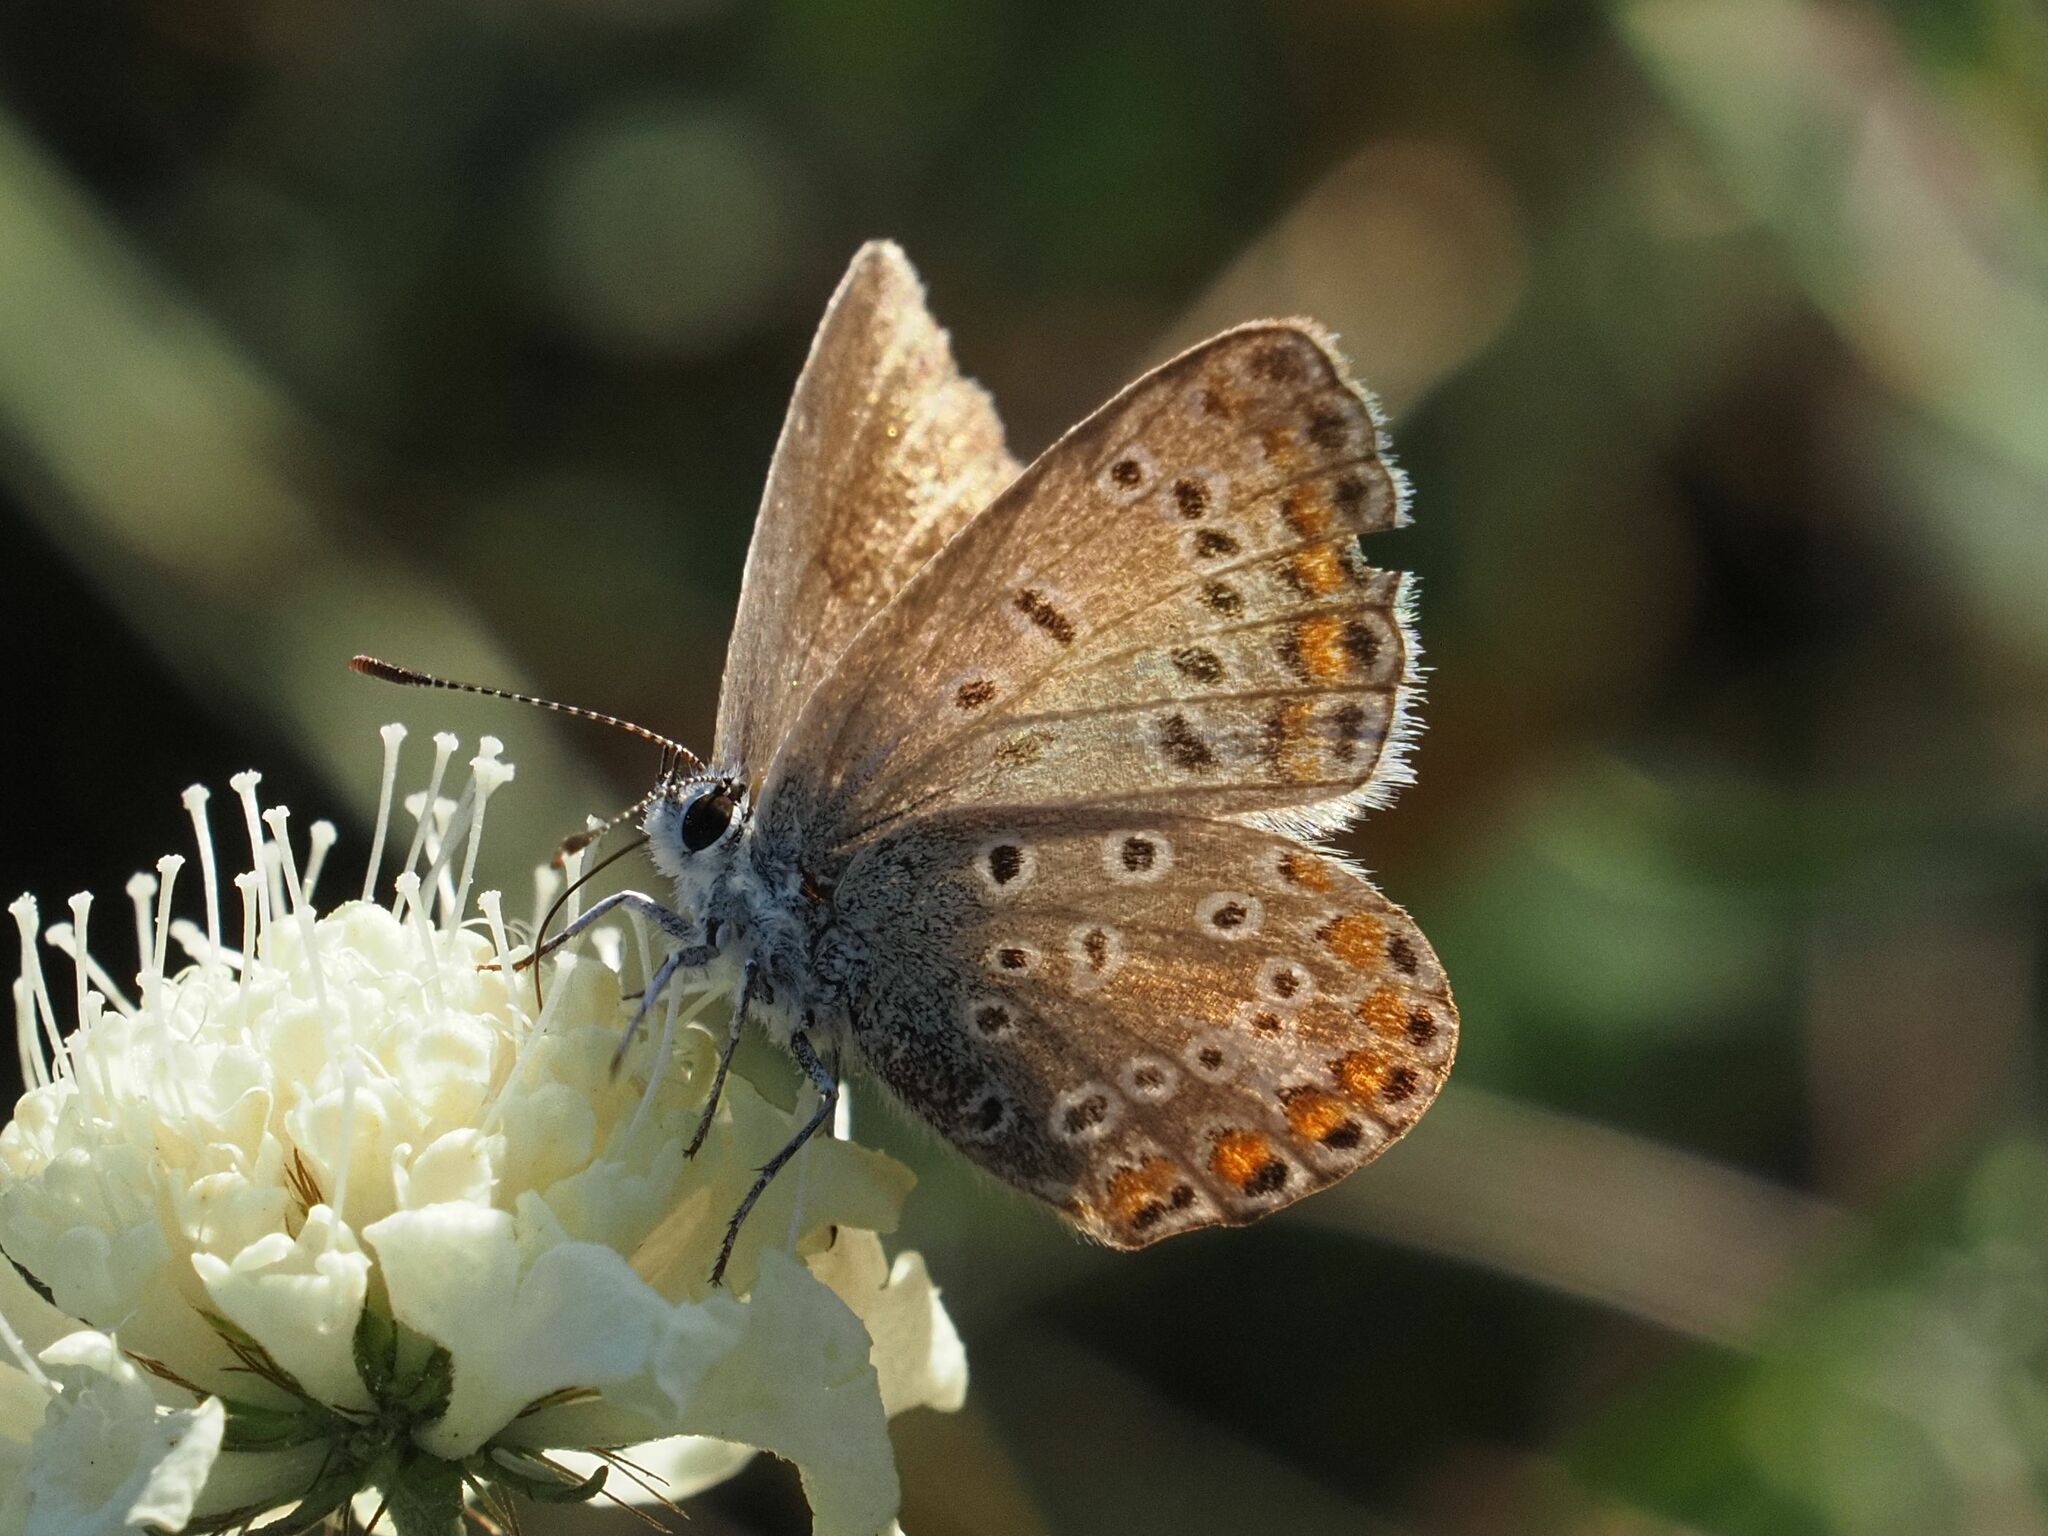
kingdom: Animalia
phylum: Arthropoda
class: Insecta
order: Lepidoptera
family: Lycaenidae
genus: Polyommatus
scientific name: Polyommatus icarus
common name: Common blue
